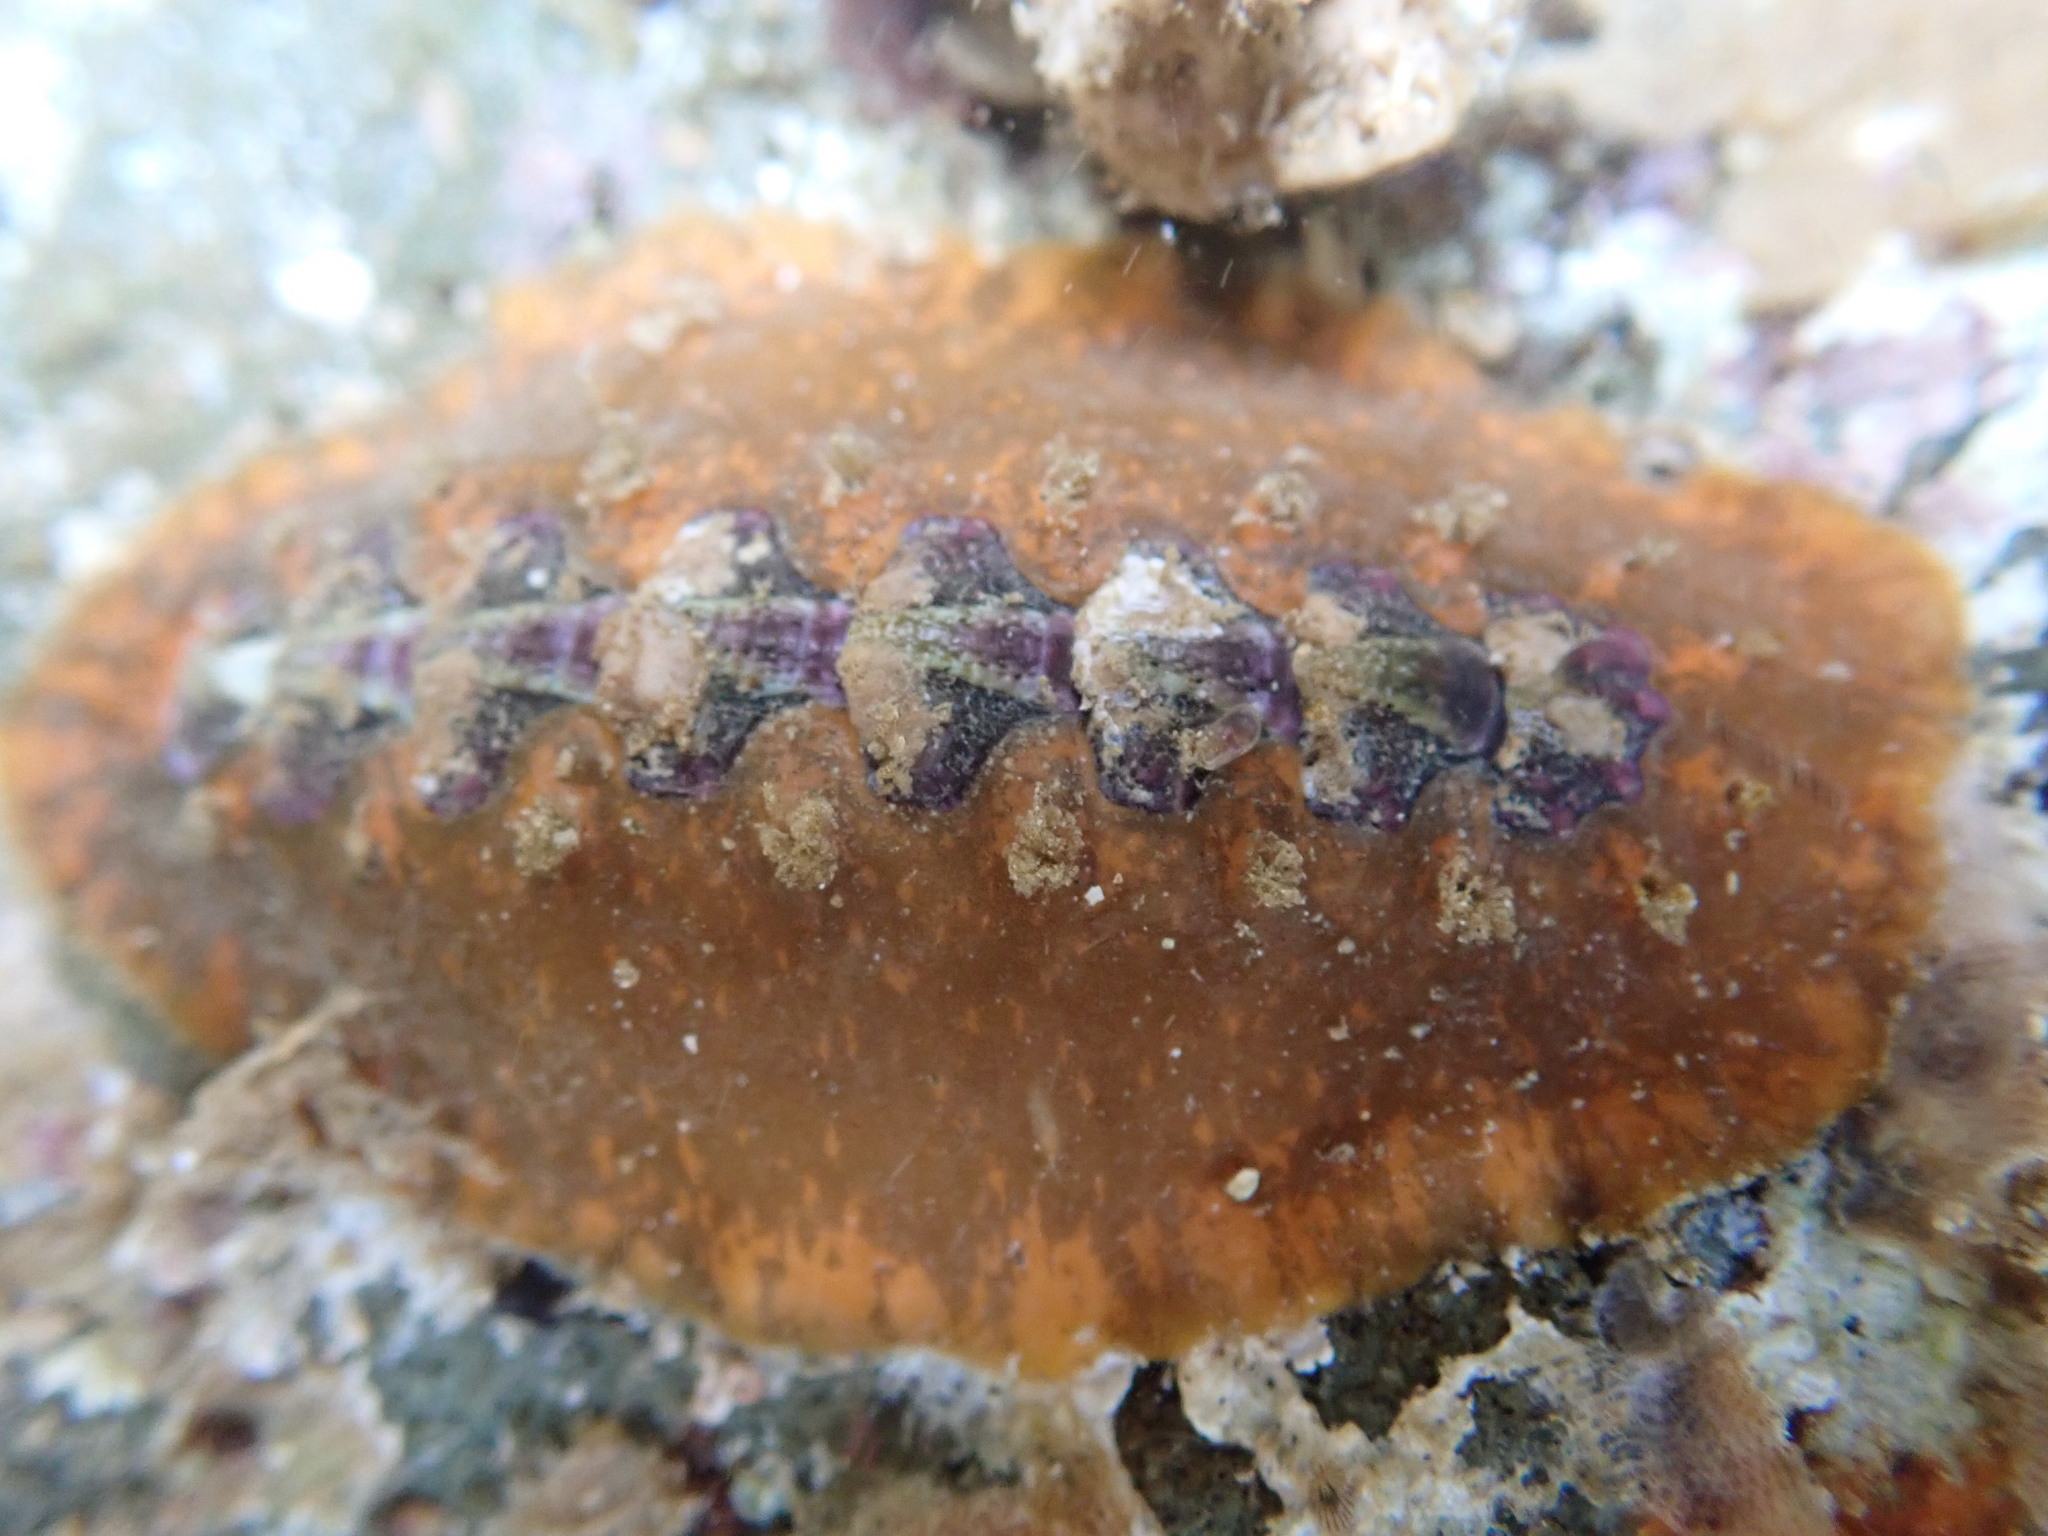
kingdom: Animalia
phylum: Mollusca
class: Polyplacophora
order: Chitonida
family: Acanthochitonidae
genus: Notoplax
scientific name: Notoplax violacea
